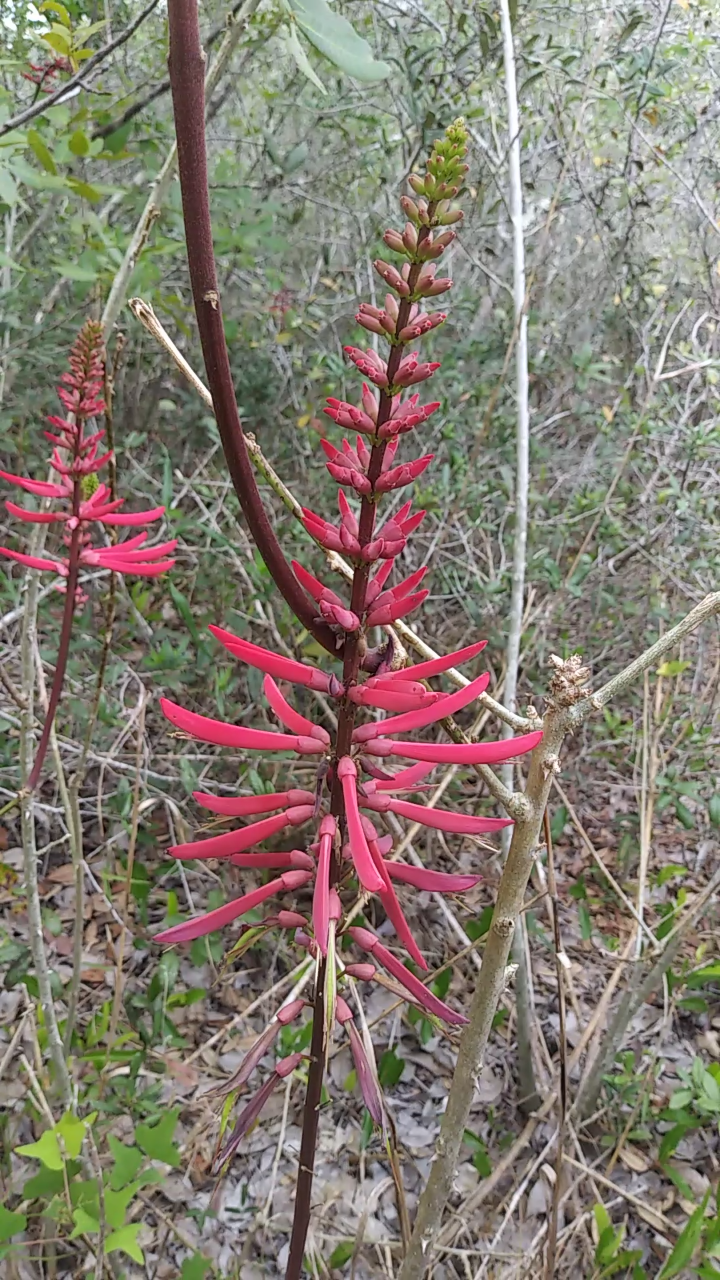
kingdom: Plantae
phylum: Tracheophyta
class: Magnoliopsida
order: Fabales
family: Fabaceae
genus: Erythrina
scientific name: Erythrina herbacea
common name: Coral-bean
